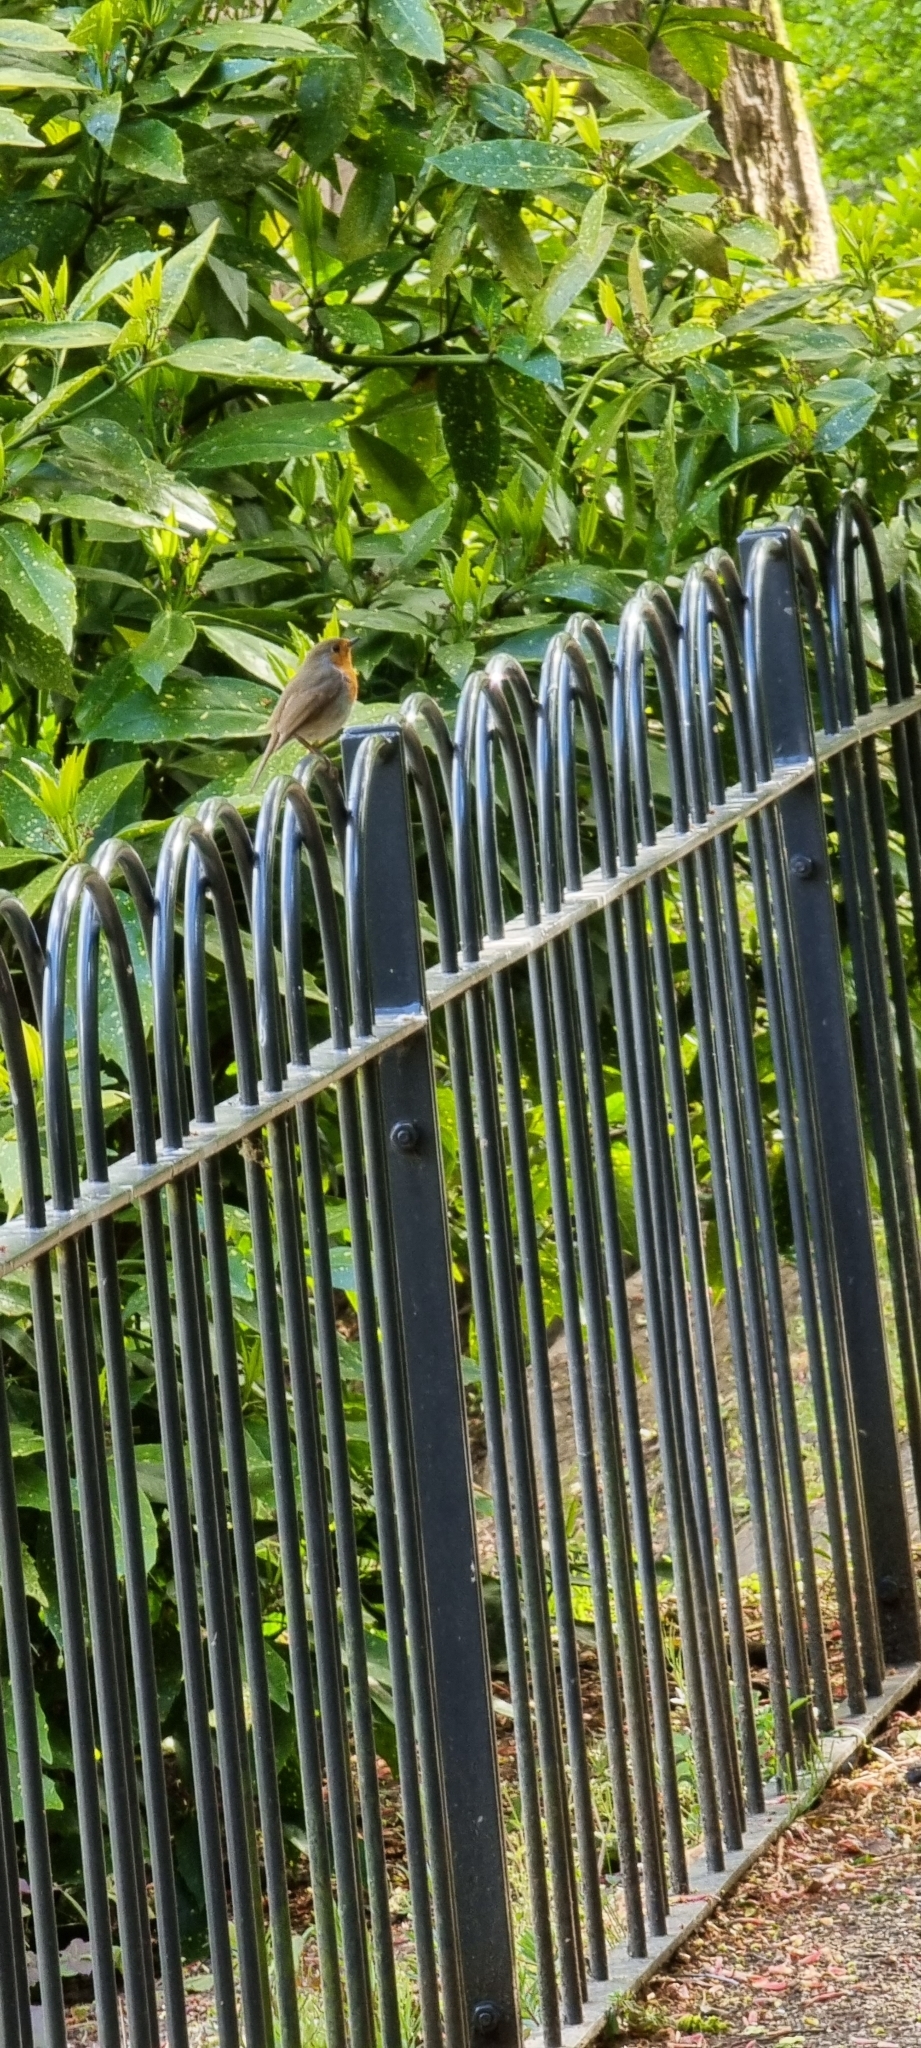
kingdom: Animalia
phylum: Chordata
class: Aves
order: Passeriformes
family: Muscicapidae
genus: Erithacus
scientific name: Erithacus rubecula
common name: European robin
